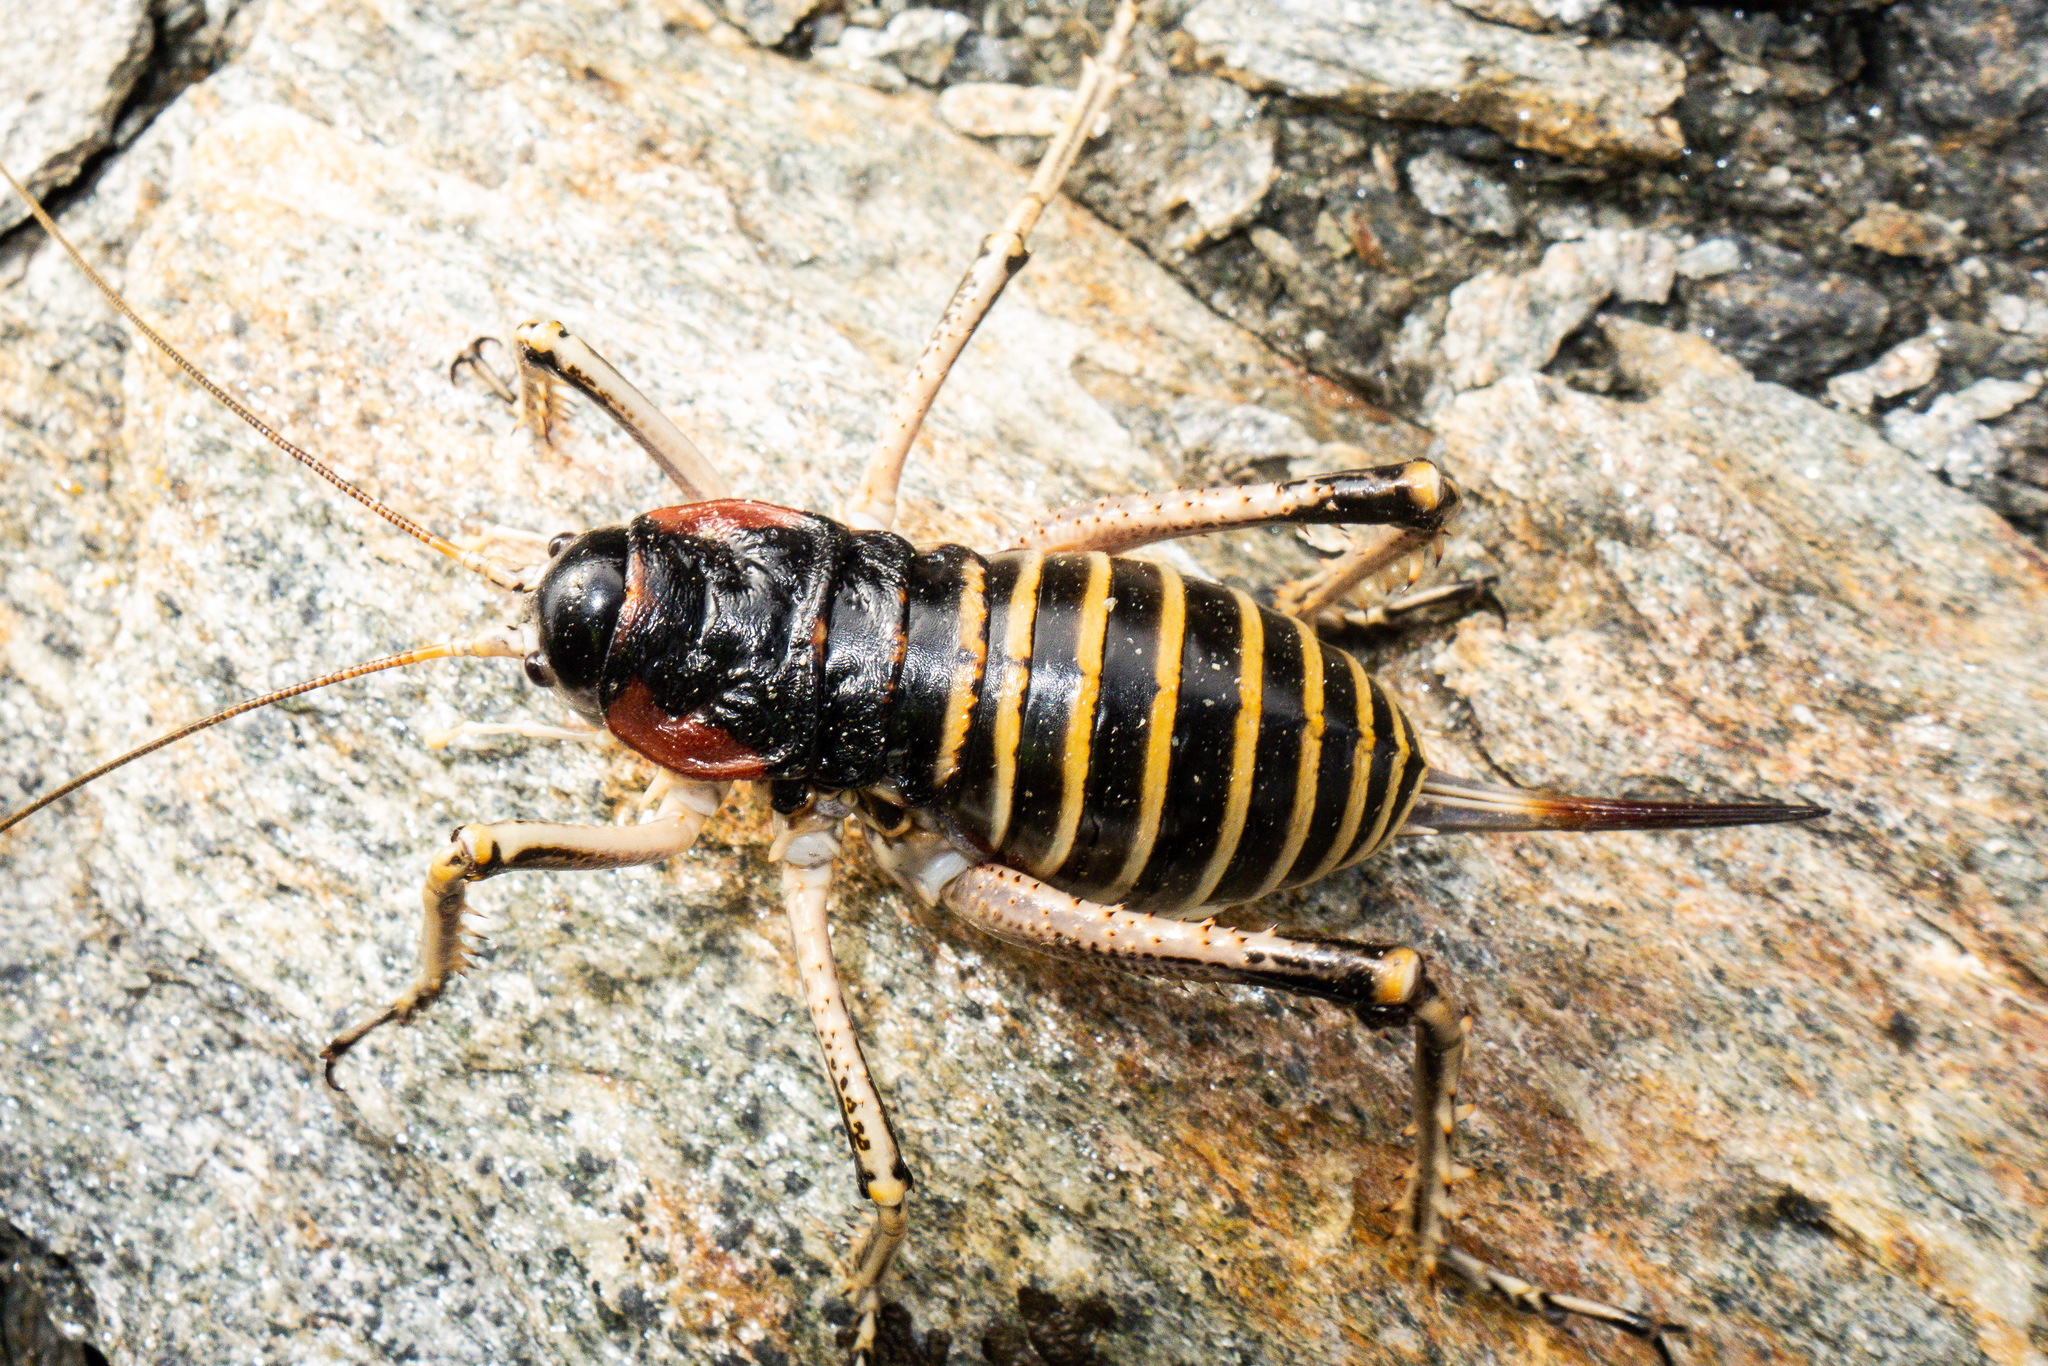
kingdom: Animalia
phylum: Arthropoda
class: Insecta
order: Orthoptera
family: Anostostomatidae
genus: Deinacrida
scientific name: Deinacrida connectens
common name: Scree weta
